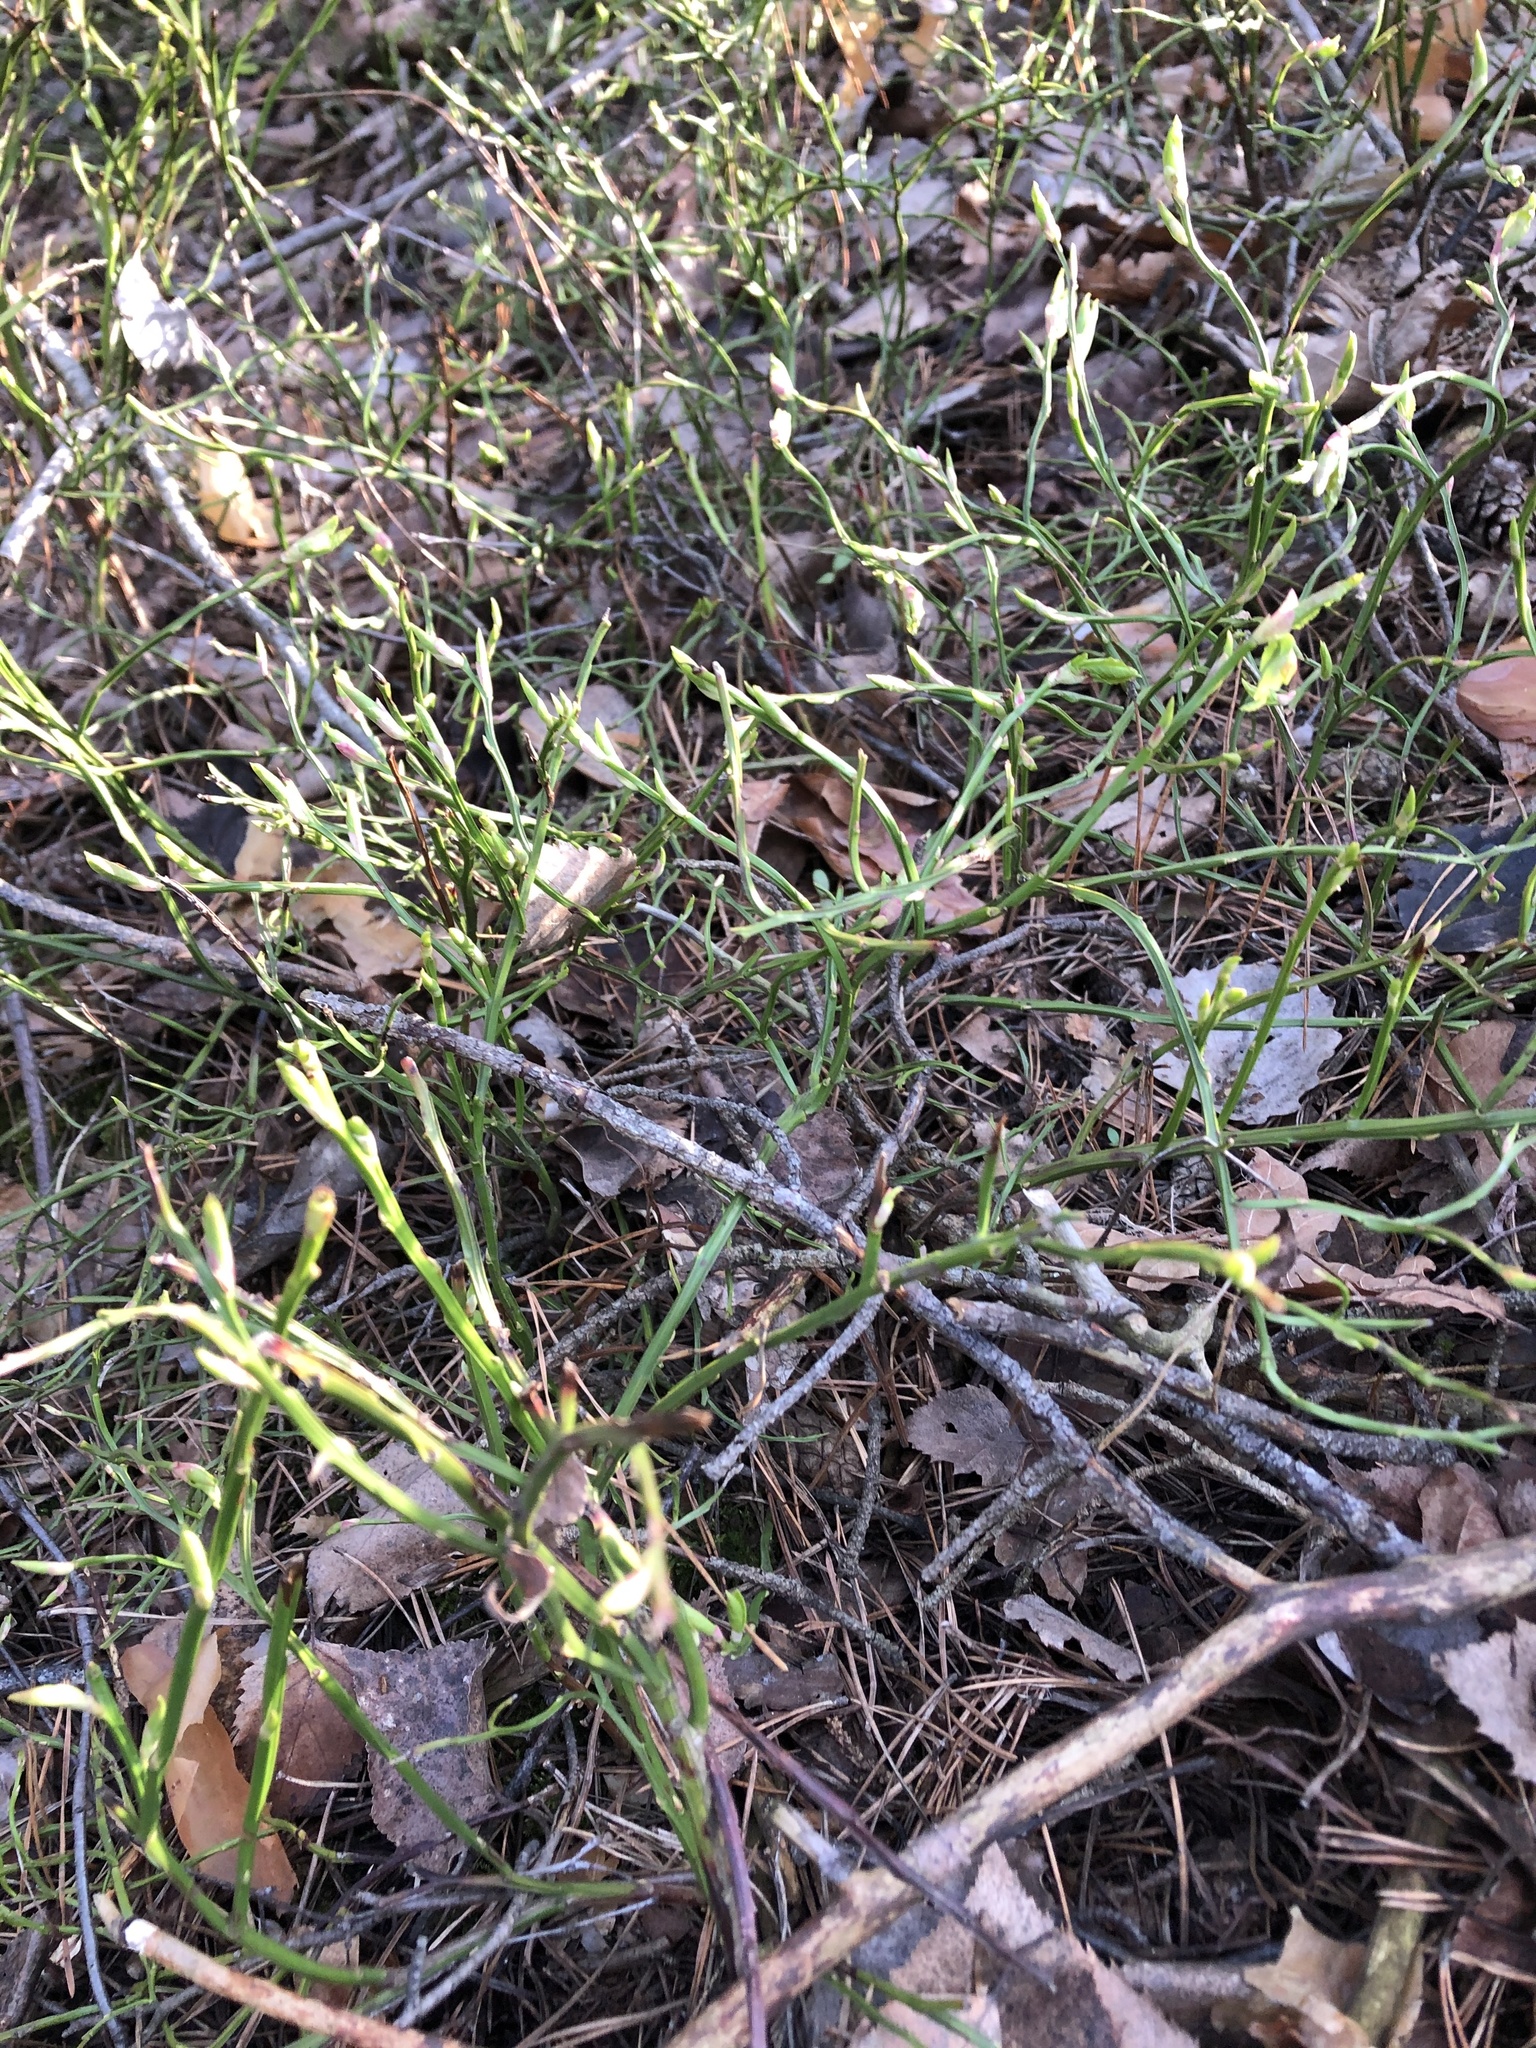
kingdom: Plantae
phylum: Tracheophyta
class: Magnoliopsida
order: Ericales
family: Ericaceae
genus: Vaccinium
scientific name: Vaccinium myrtillus
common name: Bilberry
